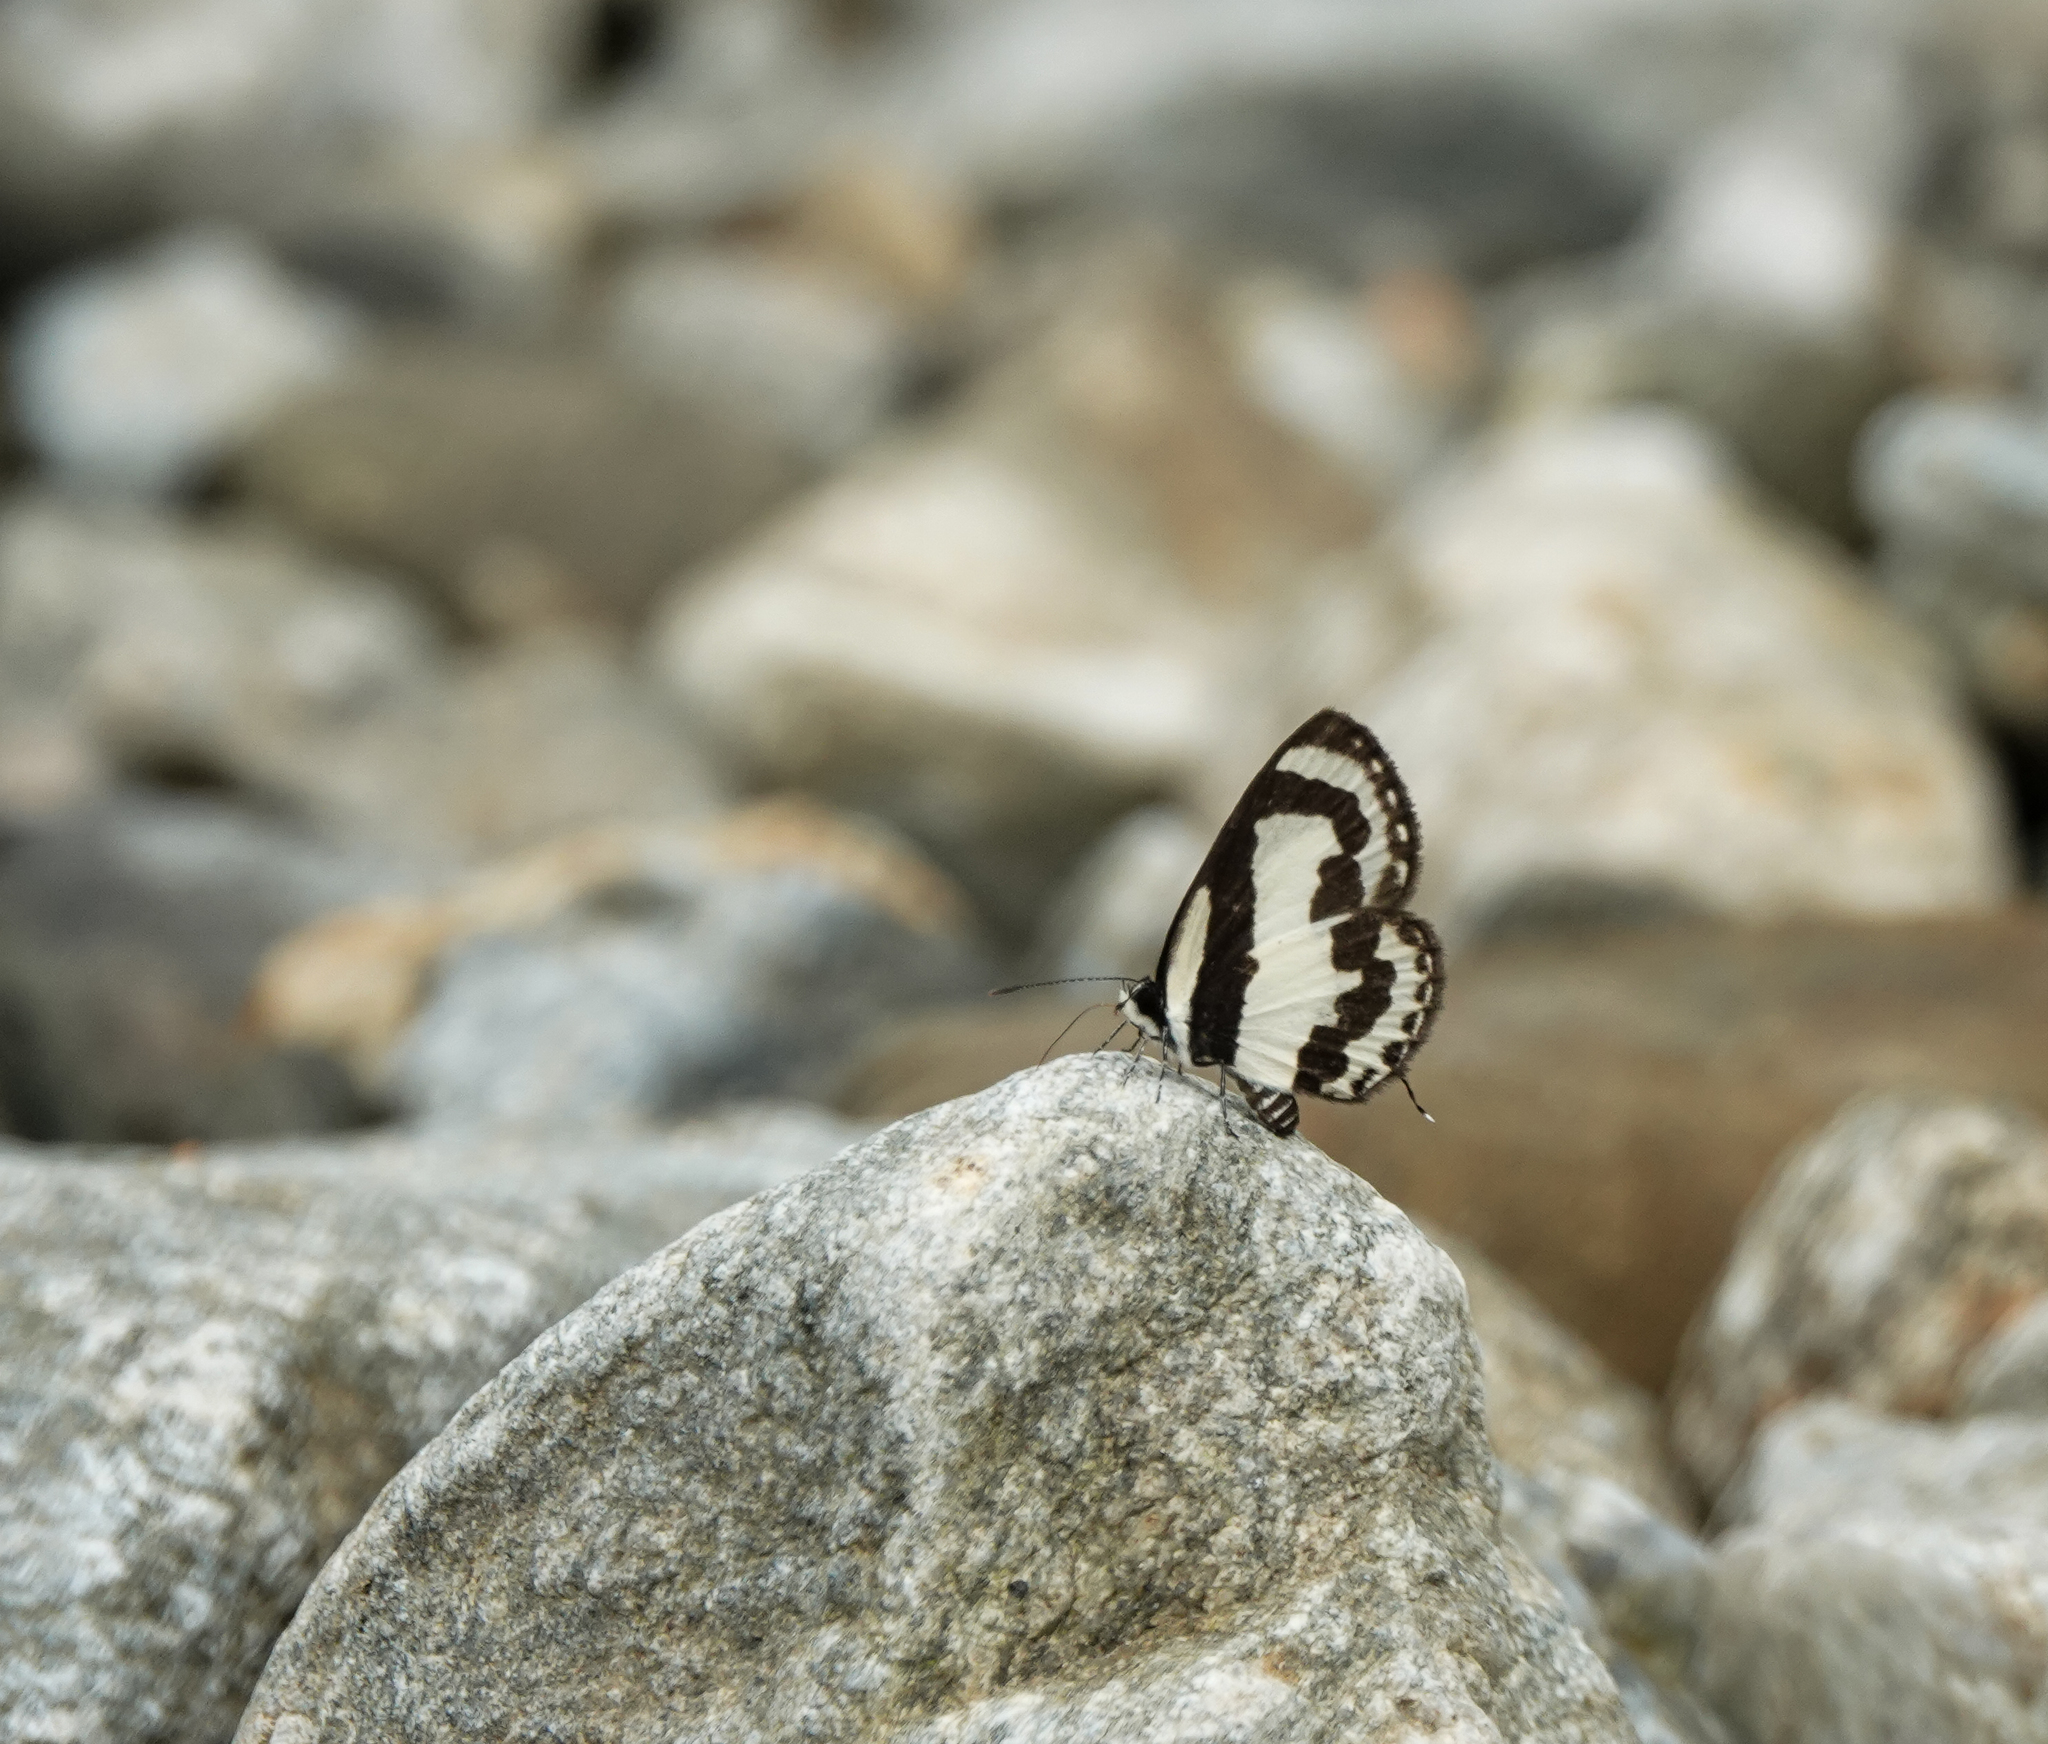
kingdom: Animalia
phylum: Arthropoda
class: Insecta
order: Lepidoptera
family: Lycaenidae
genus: Caleta
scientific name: Caleta roxus
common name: Straight pierrot
